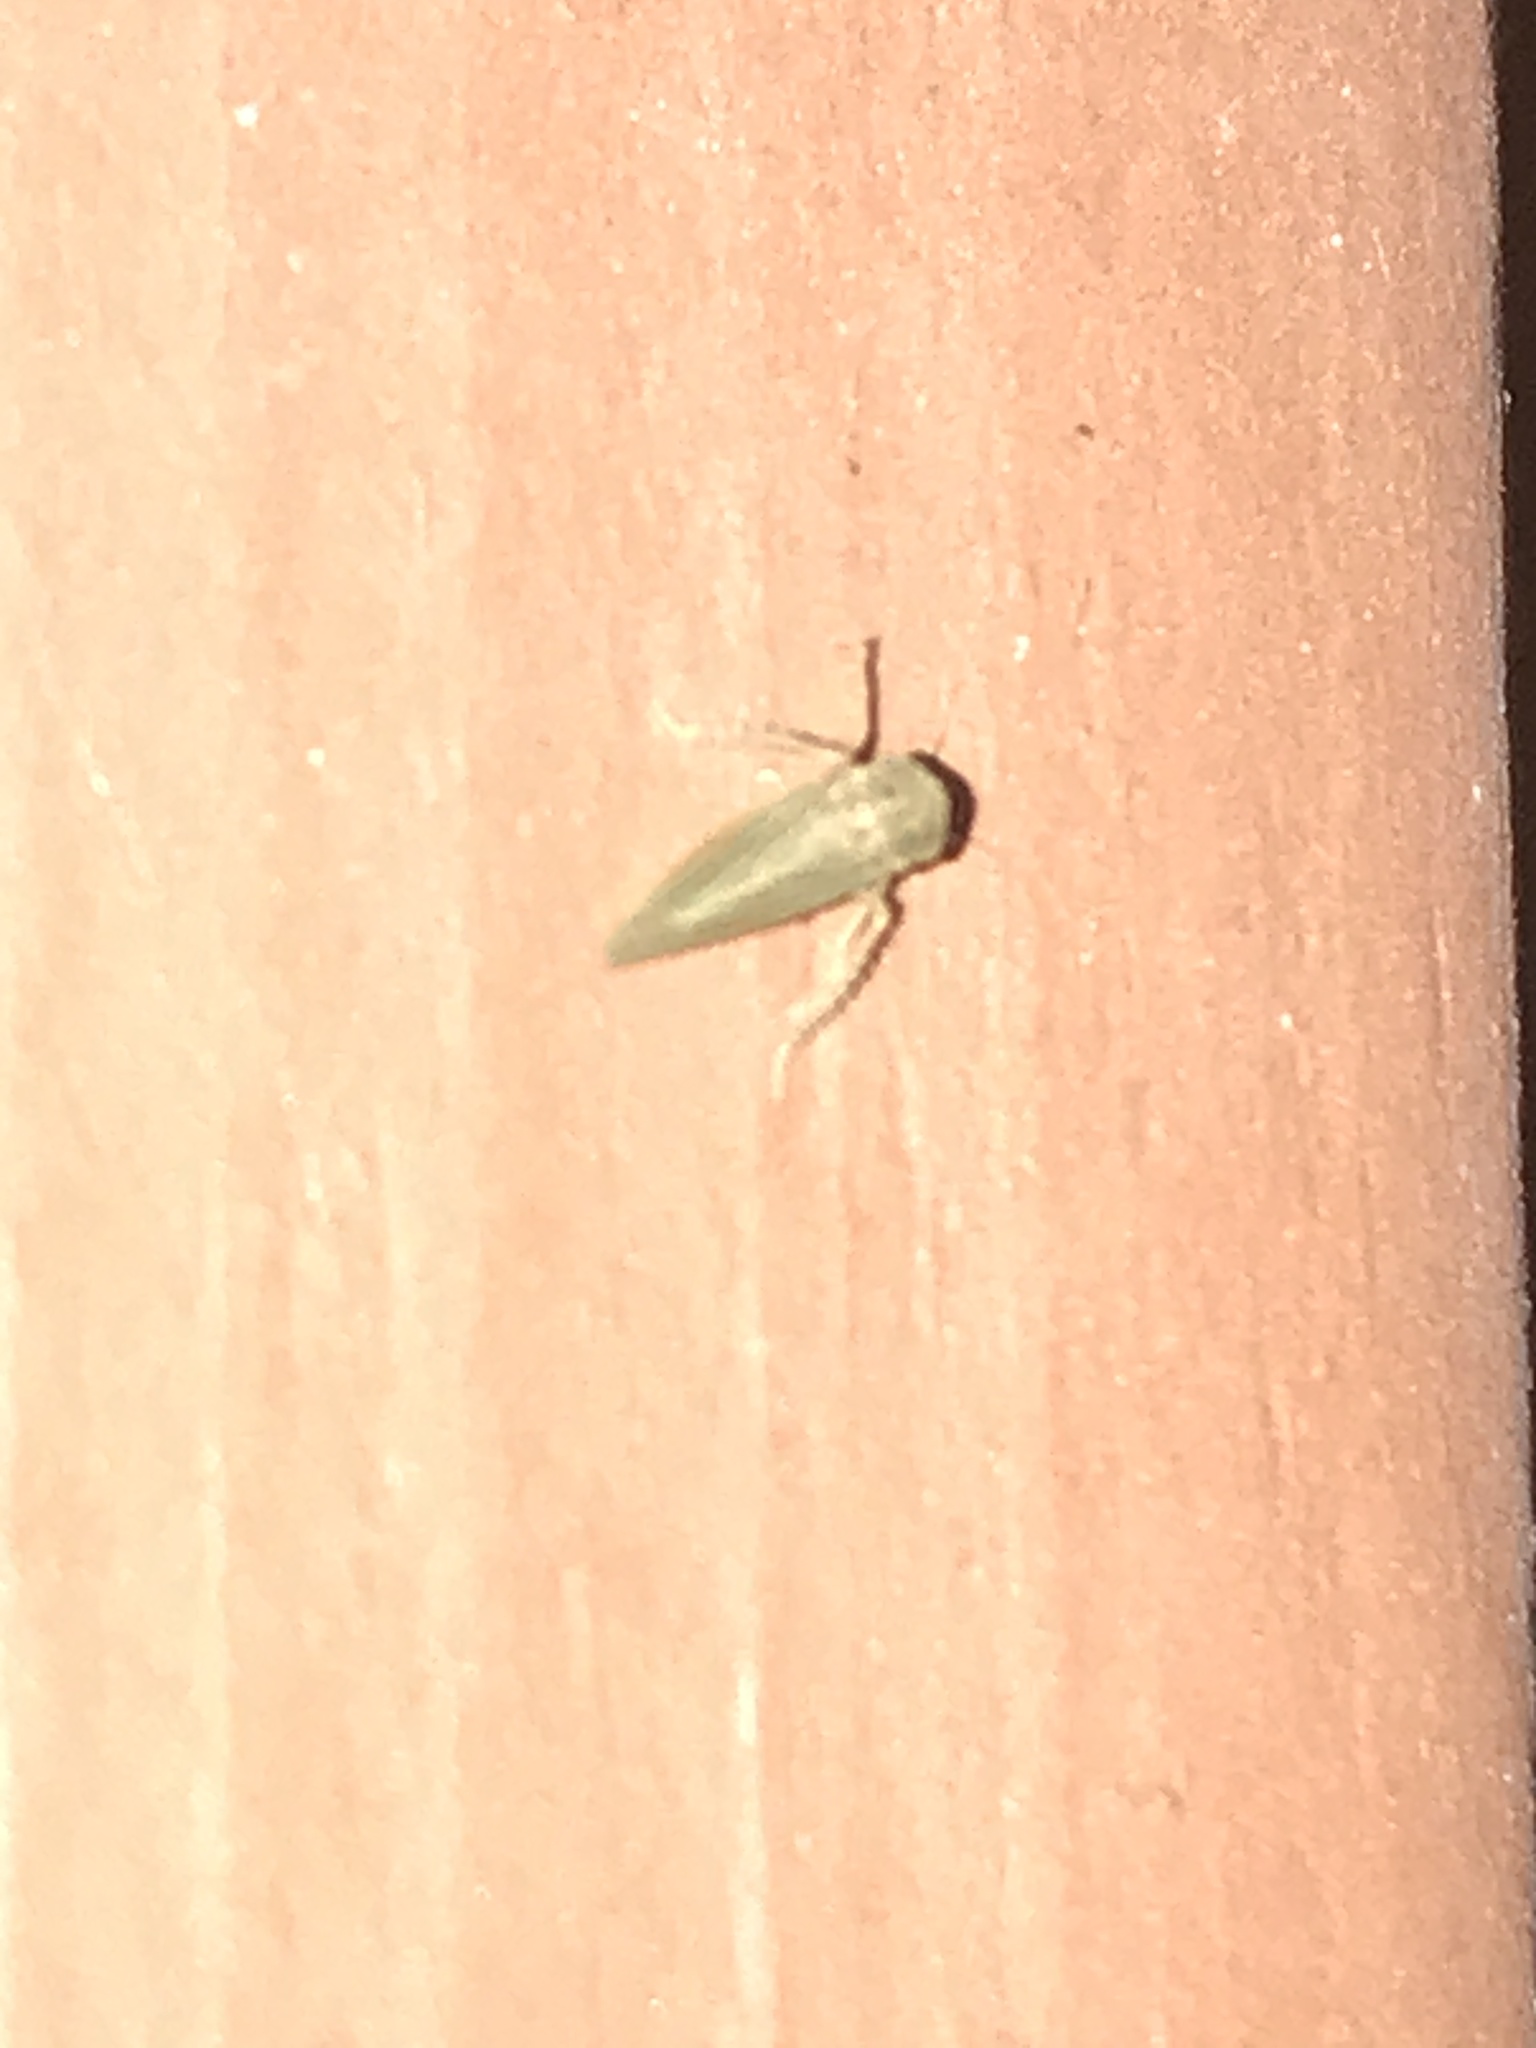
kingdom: Animalia
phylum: Arthropoda
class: Insecta
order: Hemiptera
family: Cicadellidae
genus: Agallia
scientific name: Agallia constricta
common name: The constricted leafhopper
